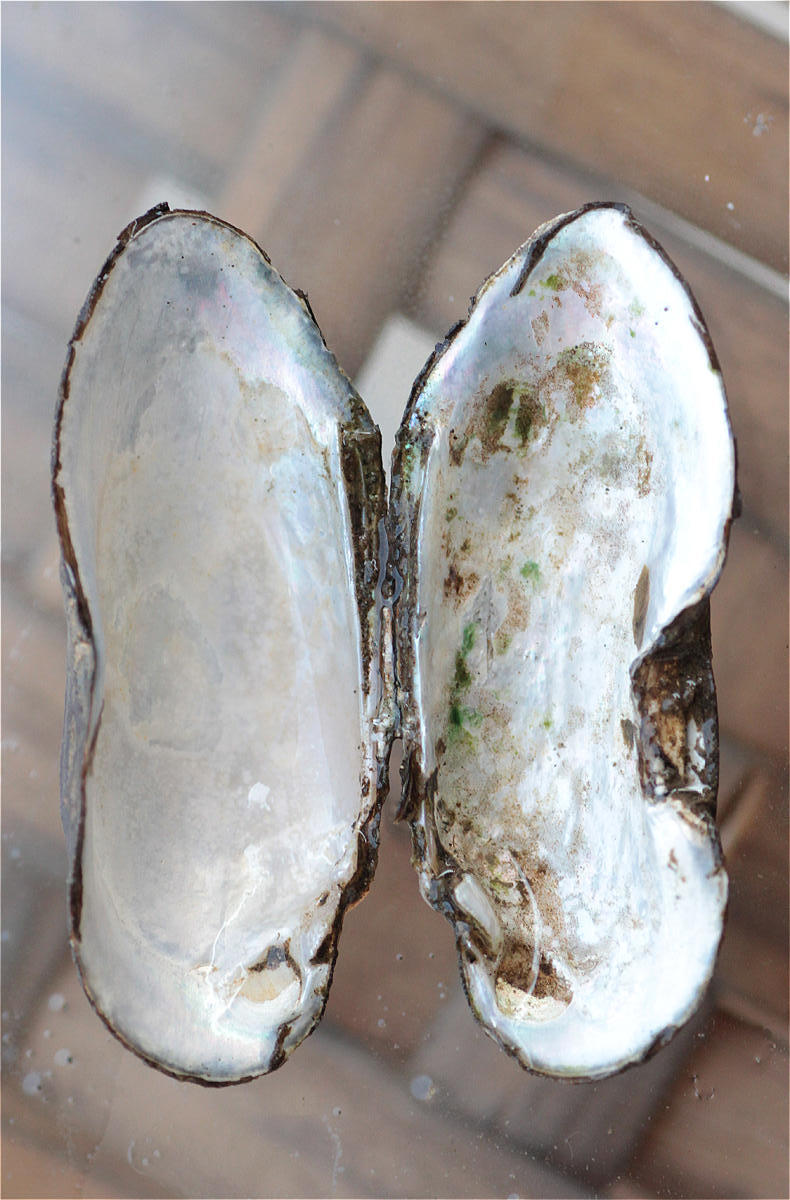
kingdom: Animalia
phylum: Mollusca
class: Bivalvia
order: Unionida
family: Unionidae
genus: Nitia
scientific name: Nitia teretiuscula
